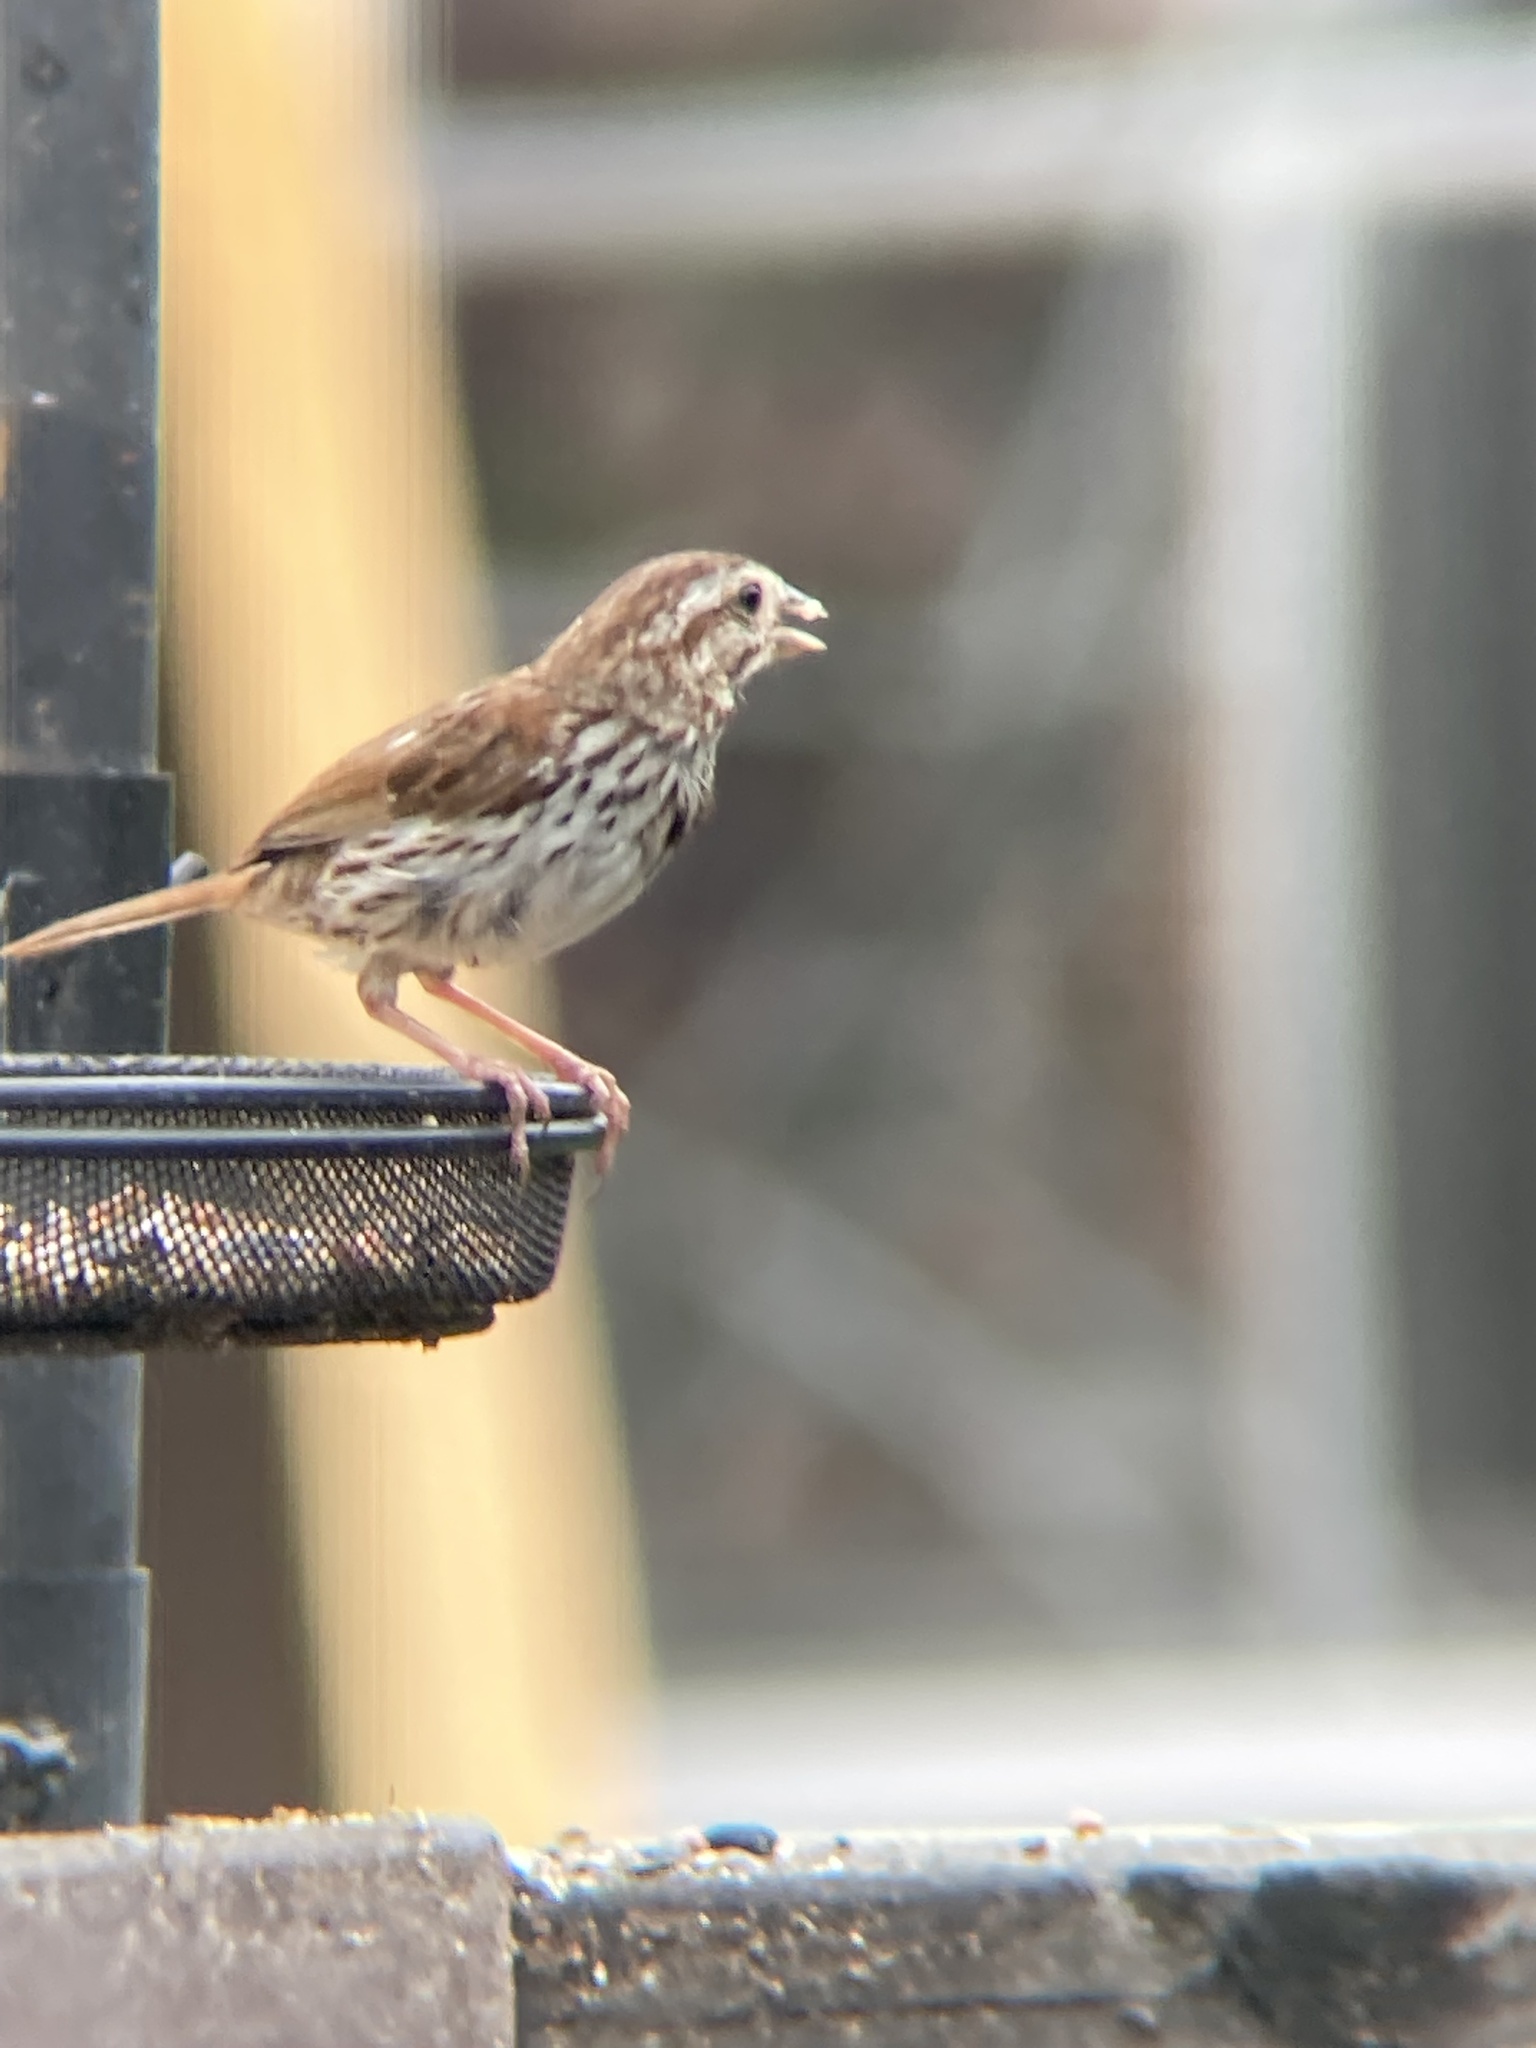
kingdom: Animalia
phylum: Chordata
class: Aves
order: Passeriformes
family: Passerellidae
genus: Melospiza
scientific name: Melospiza melodia
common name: Song sparrow
